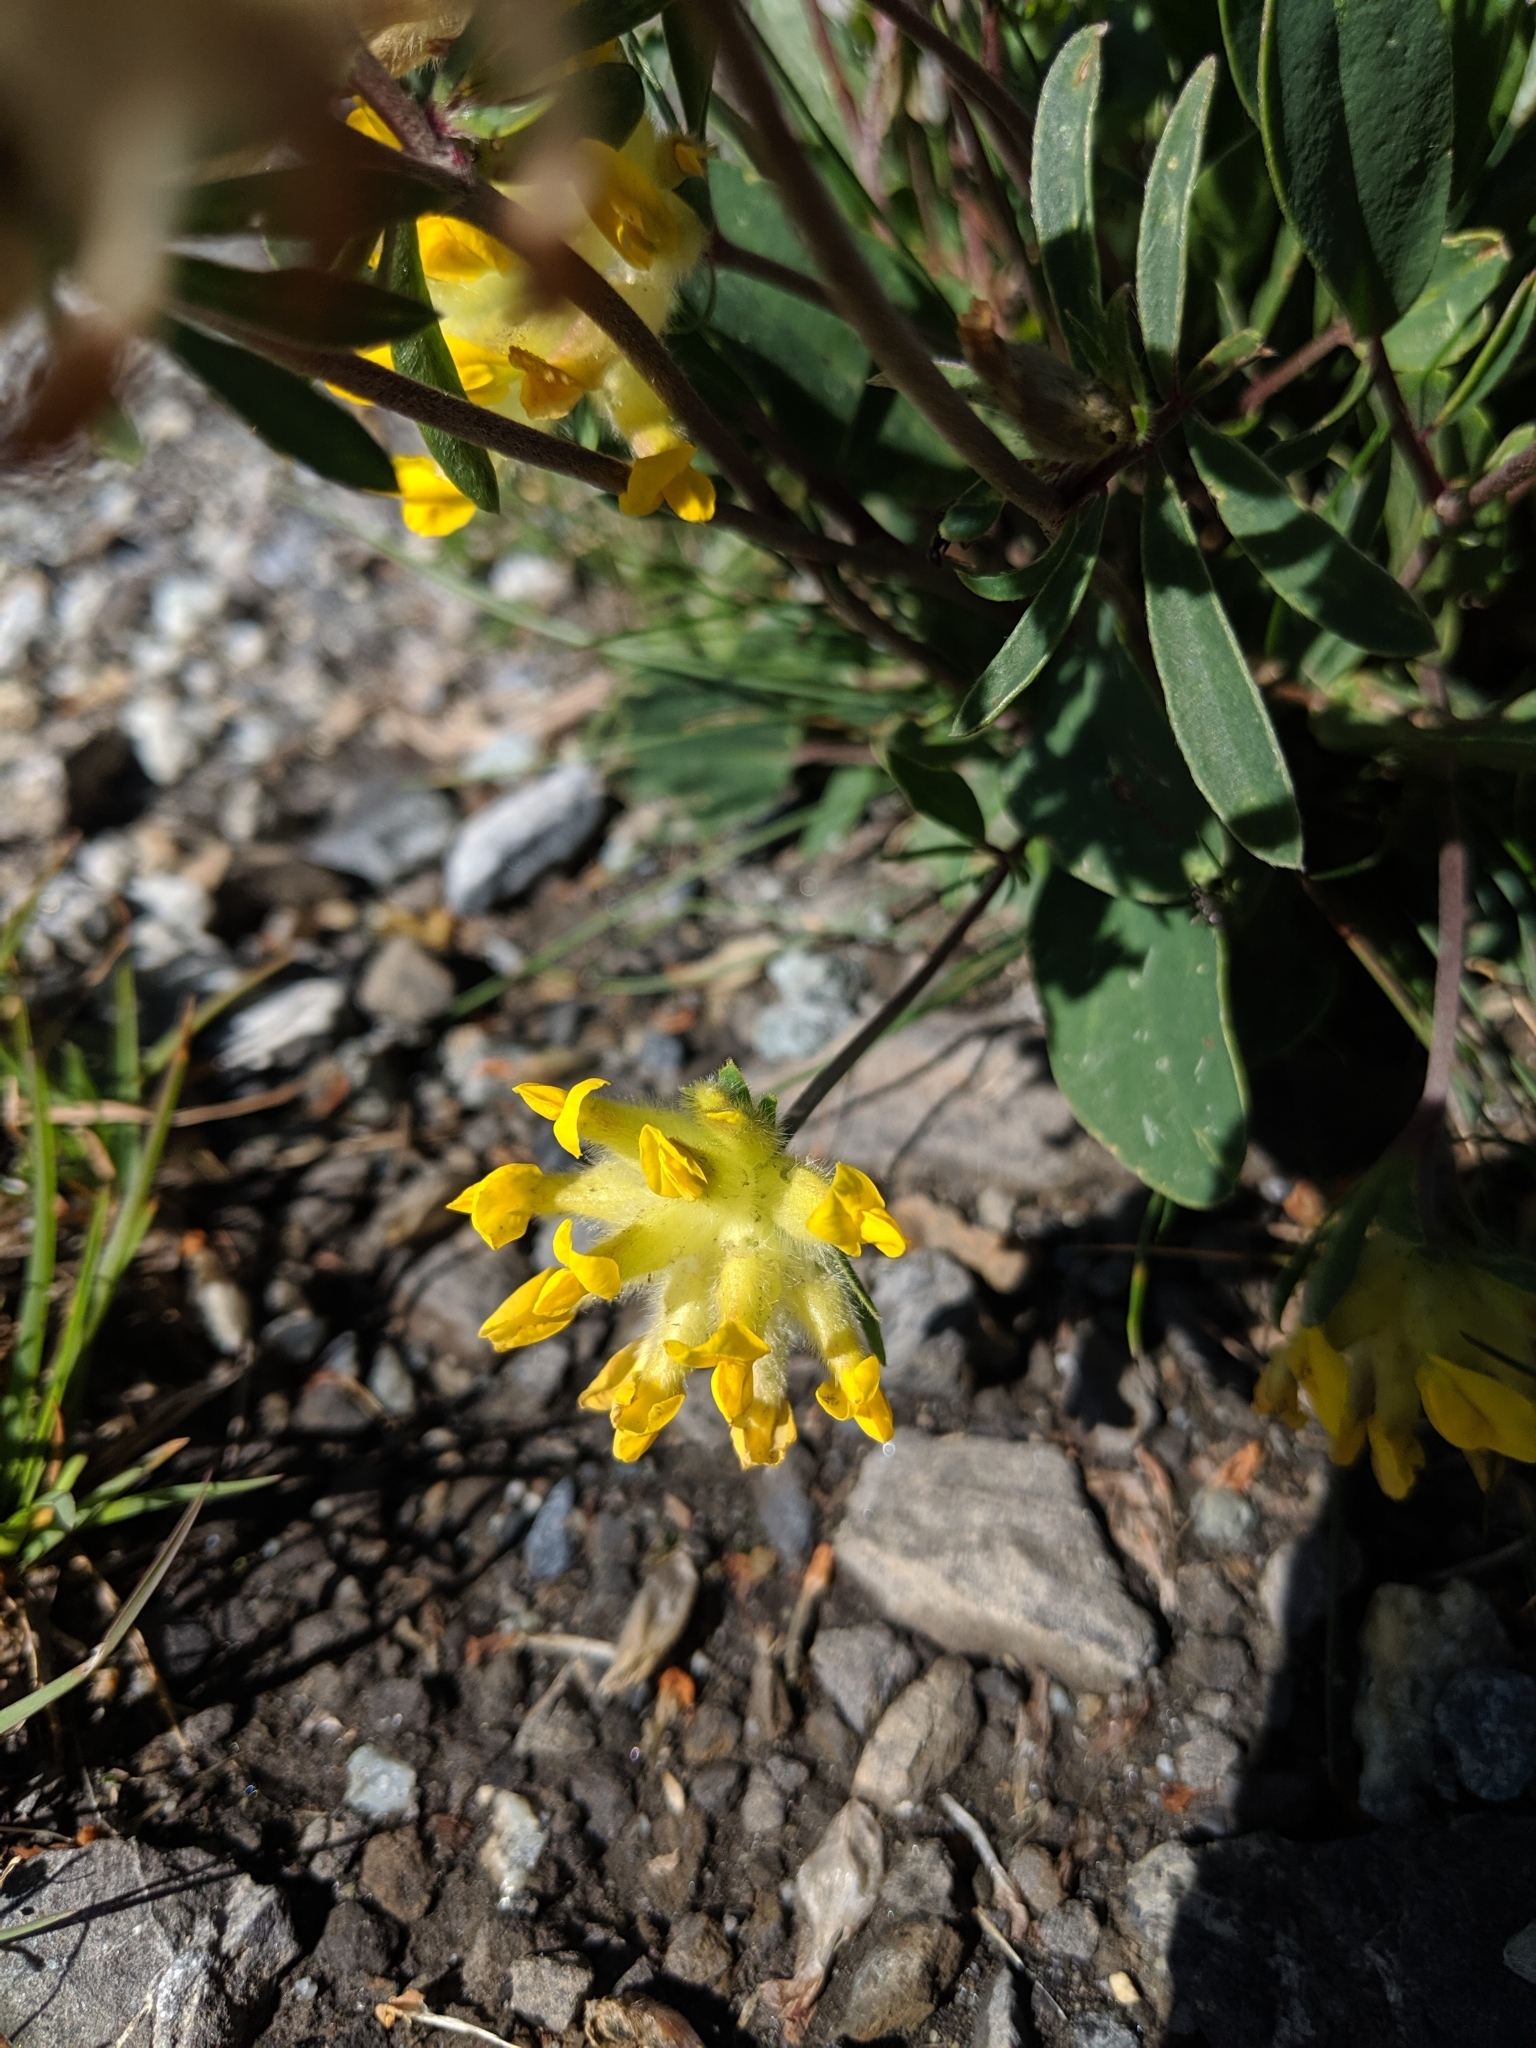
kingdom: Plantae
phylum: Tracheophyta
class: Magnoliopsida
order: Fabales
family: Fabaceae
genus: Anthyllis
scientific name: Anthyllis vulneraria
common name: Kidney vetch
